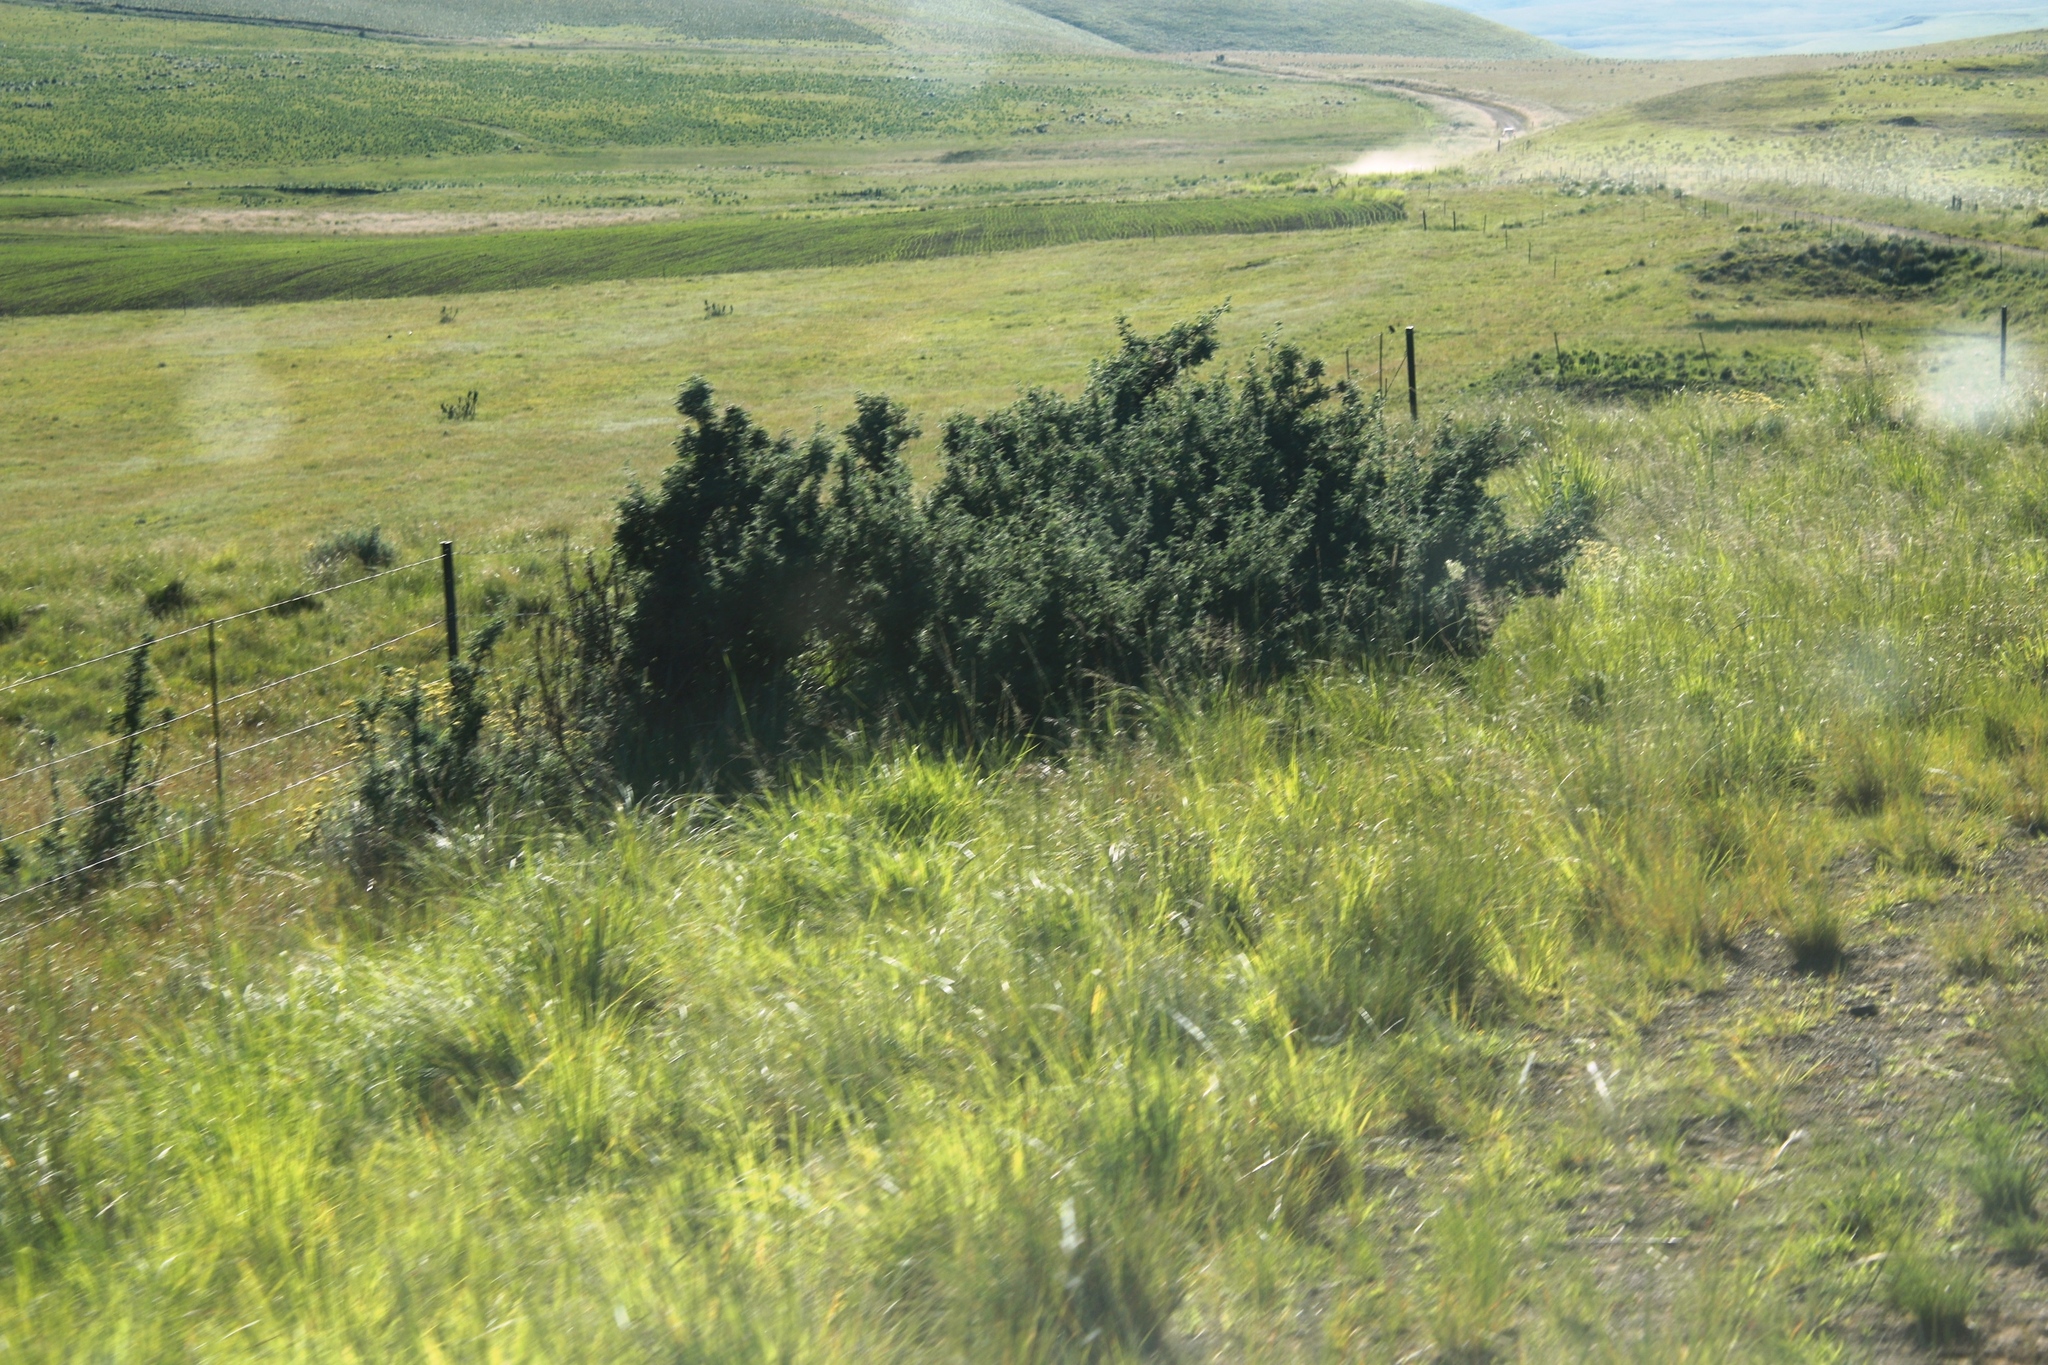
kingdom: Plantae
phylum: Tracheophyta
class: Magnoliopsida
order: Rosales
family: Rosaceae
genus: Leucosidea
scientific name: Leucosidea sericea
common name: Oldwood
